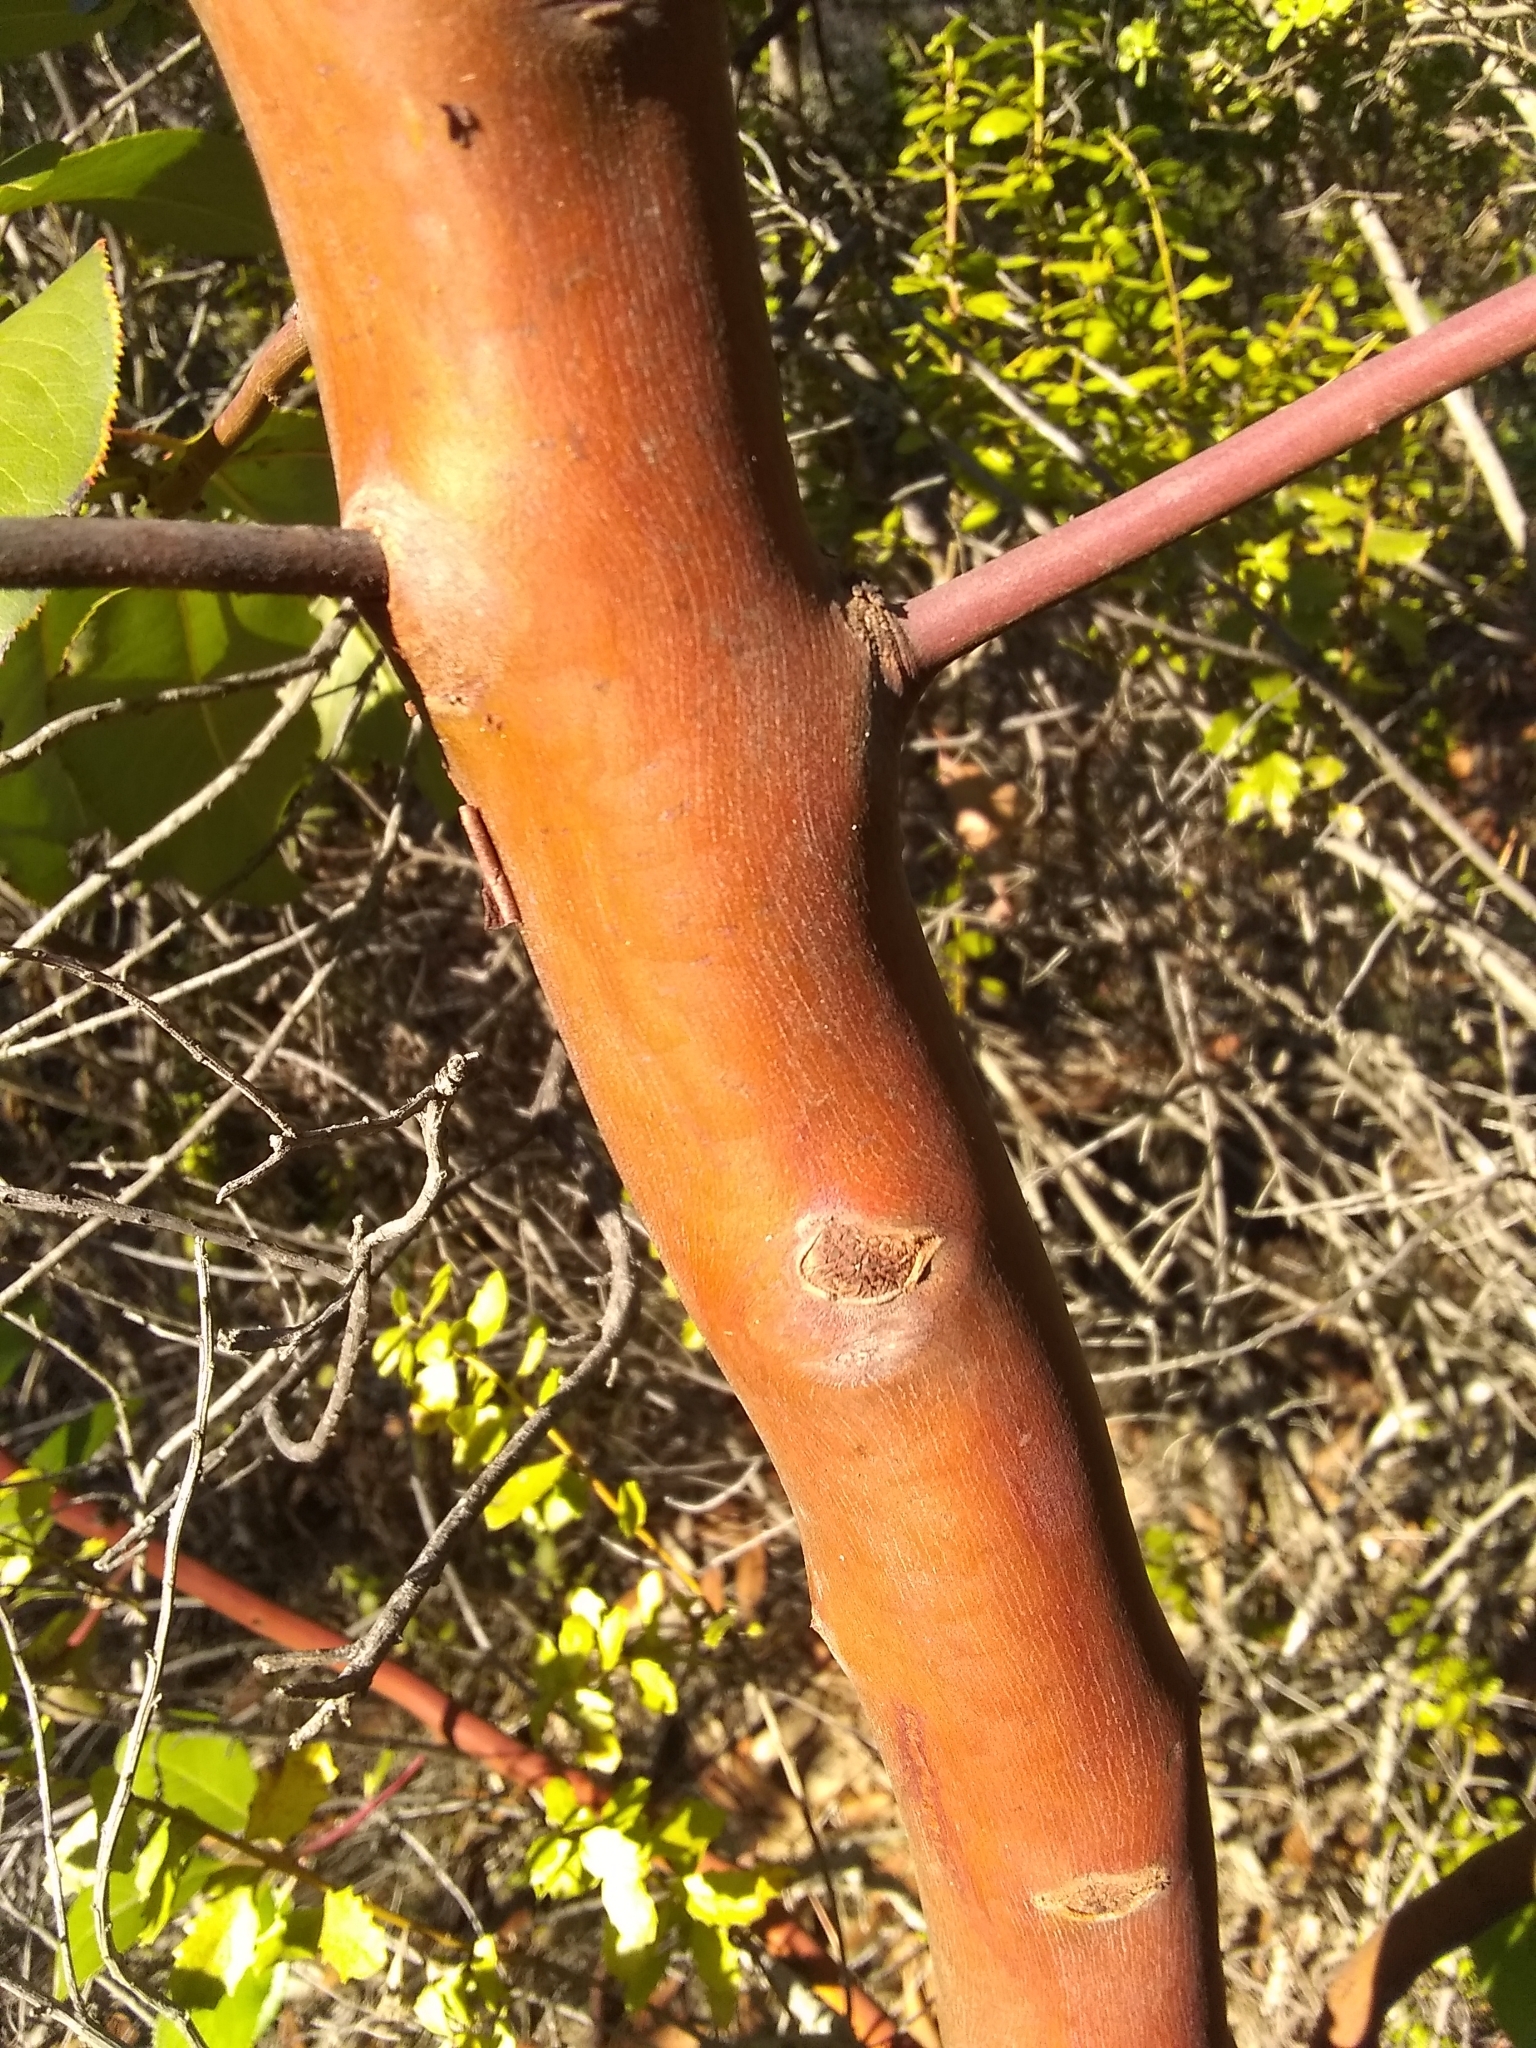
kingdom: Plantae
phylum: Tracheophyta
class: Magnoliopsida
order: Ericales
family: Ericaceae
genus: Arbutus
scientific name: Arbutus menziesii
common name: Pacific madrone
